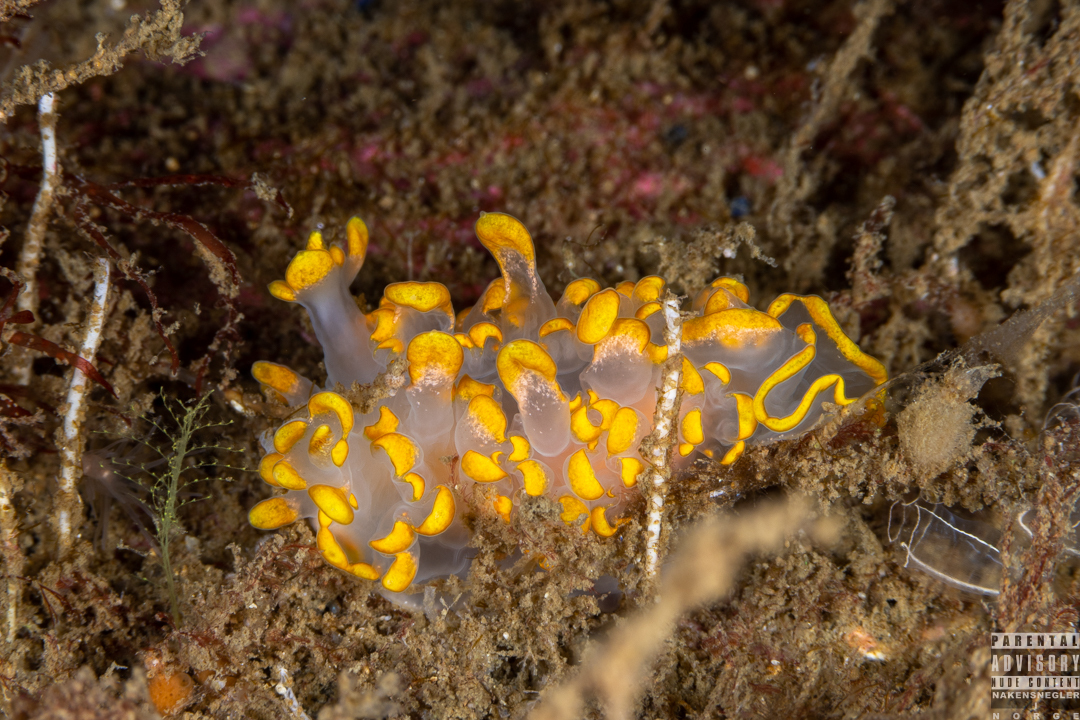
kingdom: Animalia
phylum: Mollusca
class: Gastropoda
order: Nudibranchia
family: Lomanotidae
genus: Lomanotus
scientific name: Lomanotus genei
